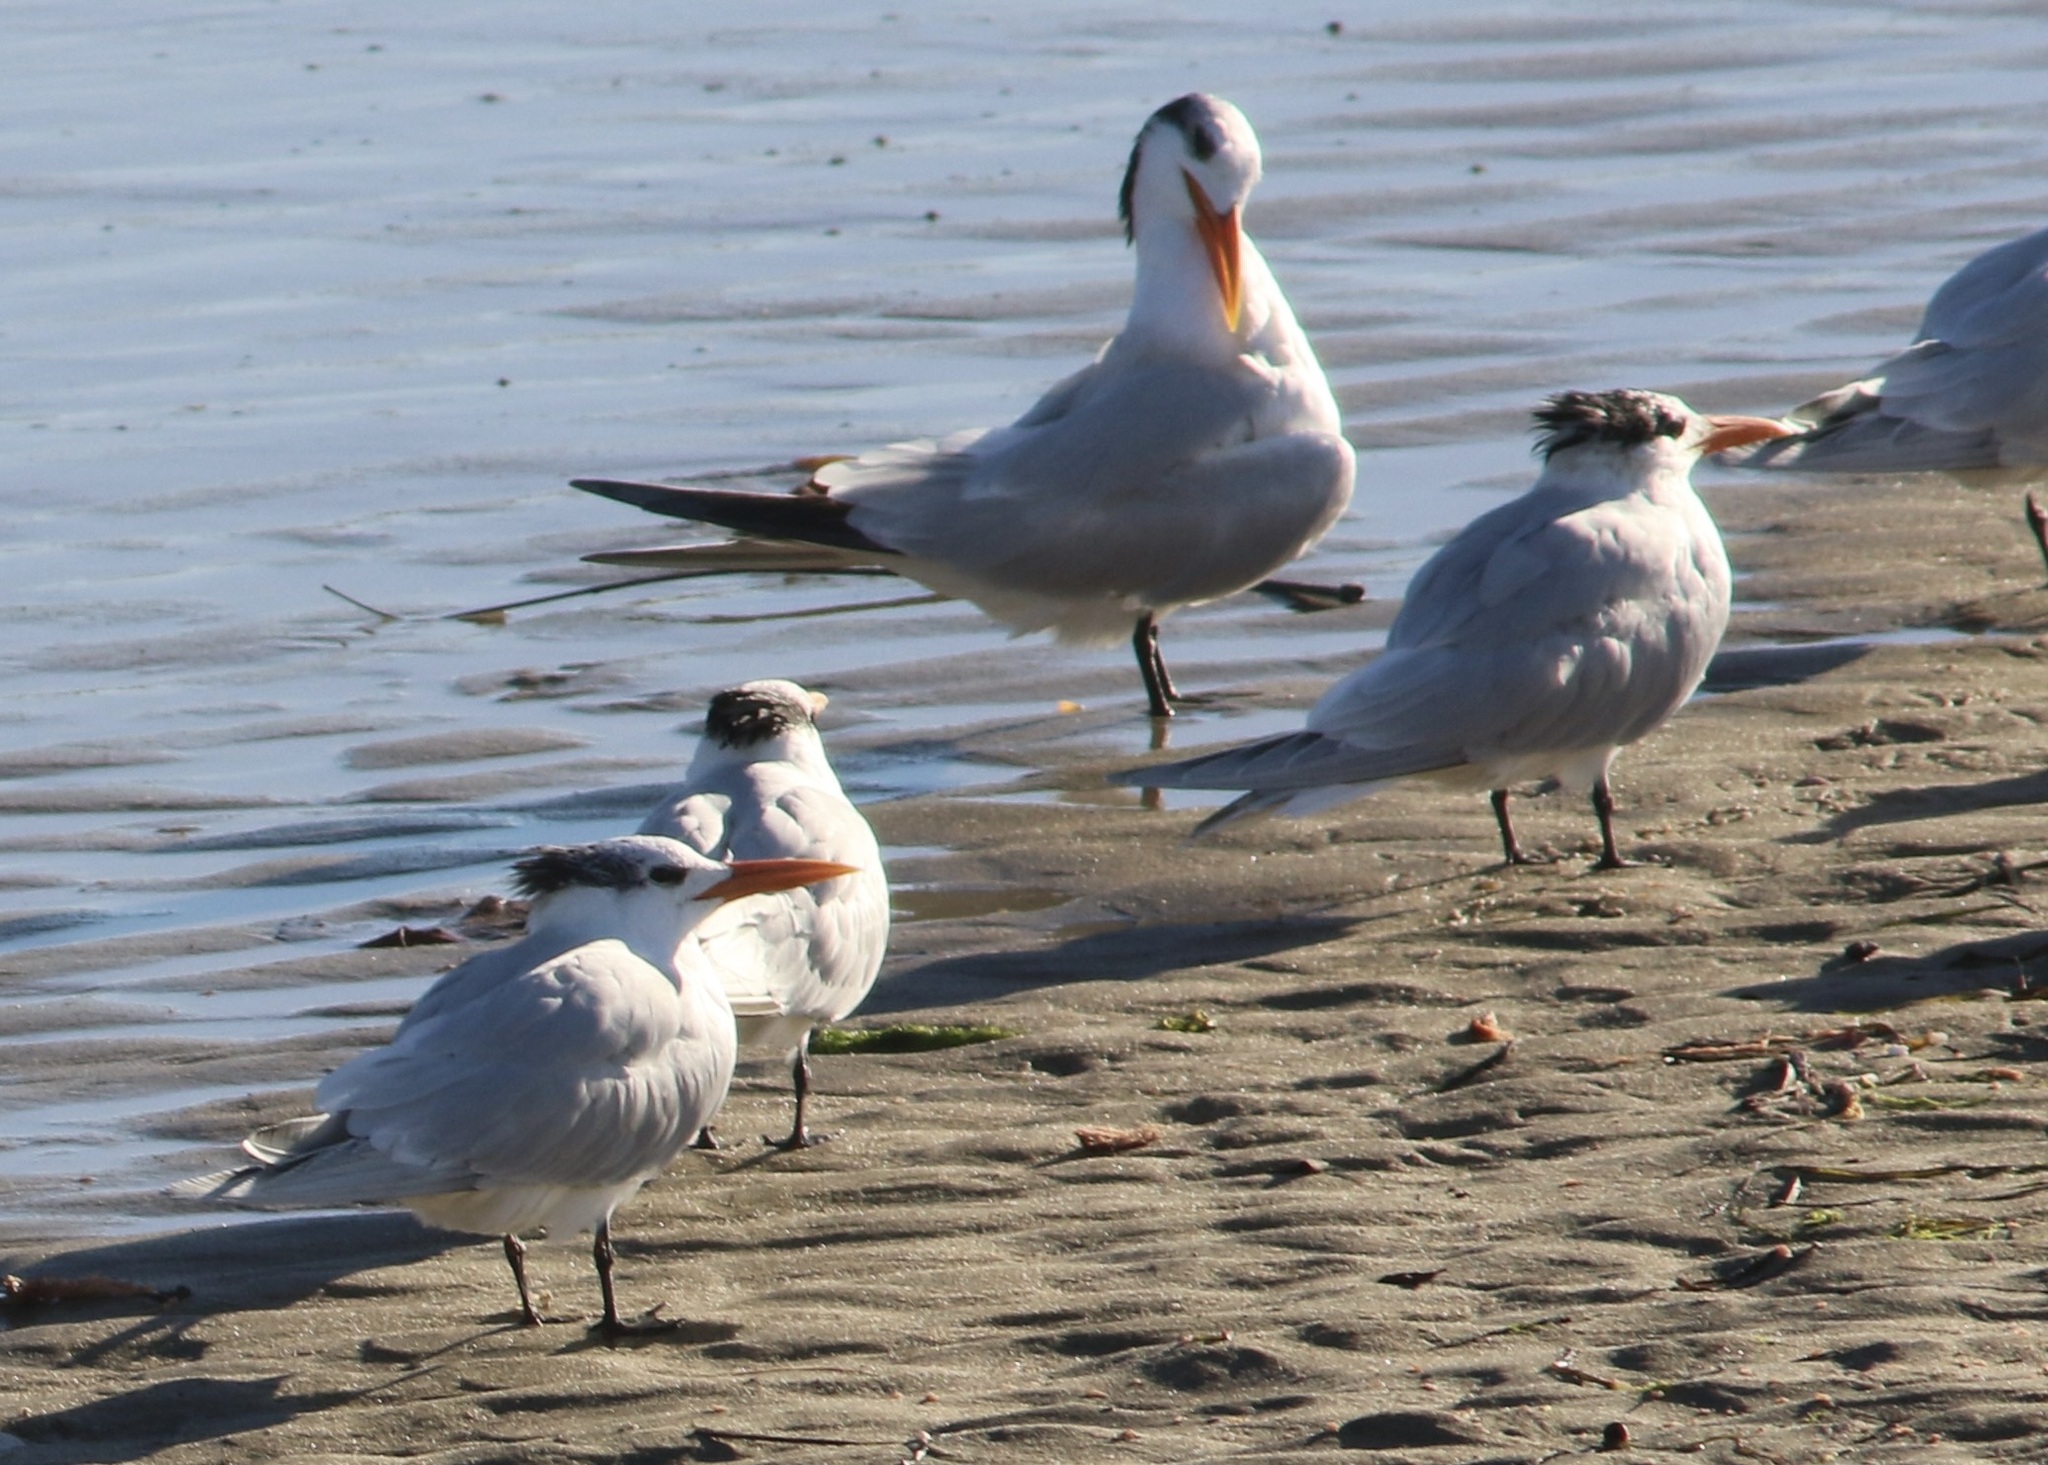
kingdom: Animalia
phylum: Chordata
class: Aves
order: Charadriiformes
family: Laridae
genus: Thalasseus
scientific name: Thalasseus maximus
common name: Royal tern
